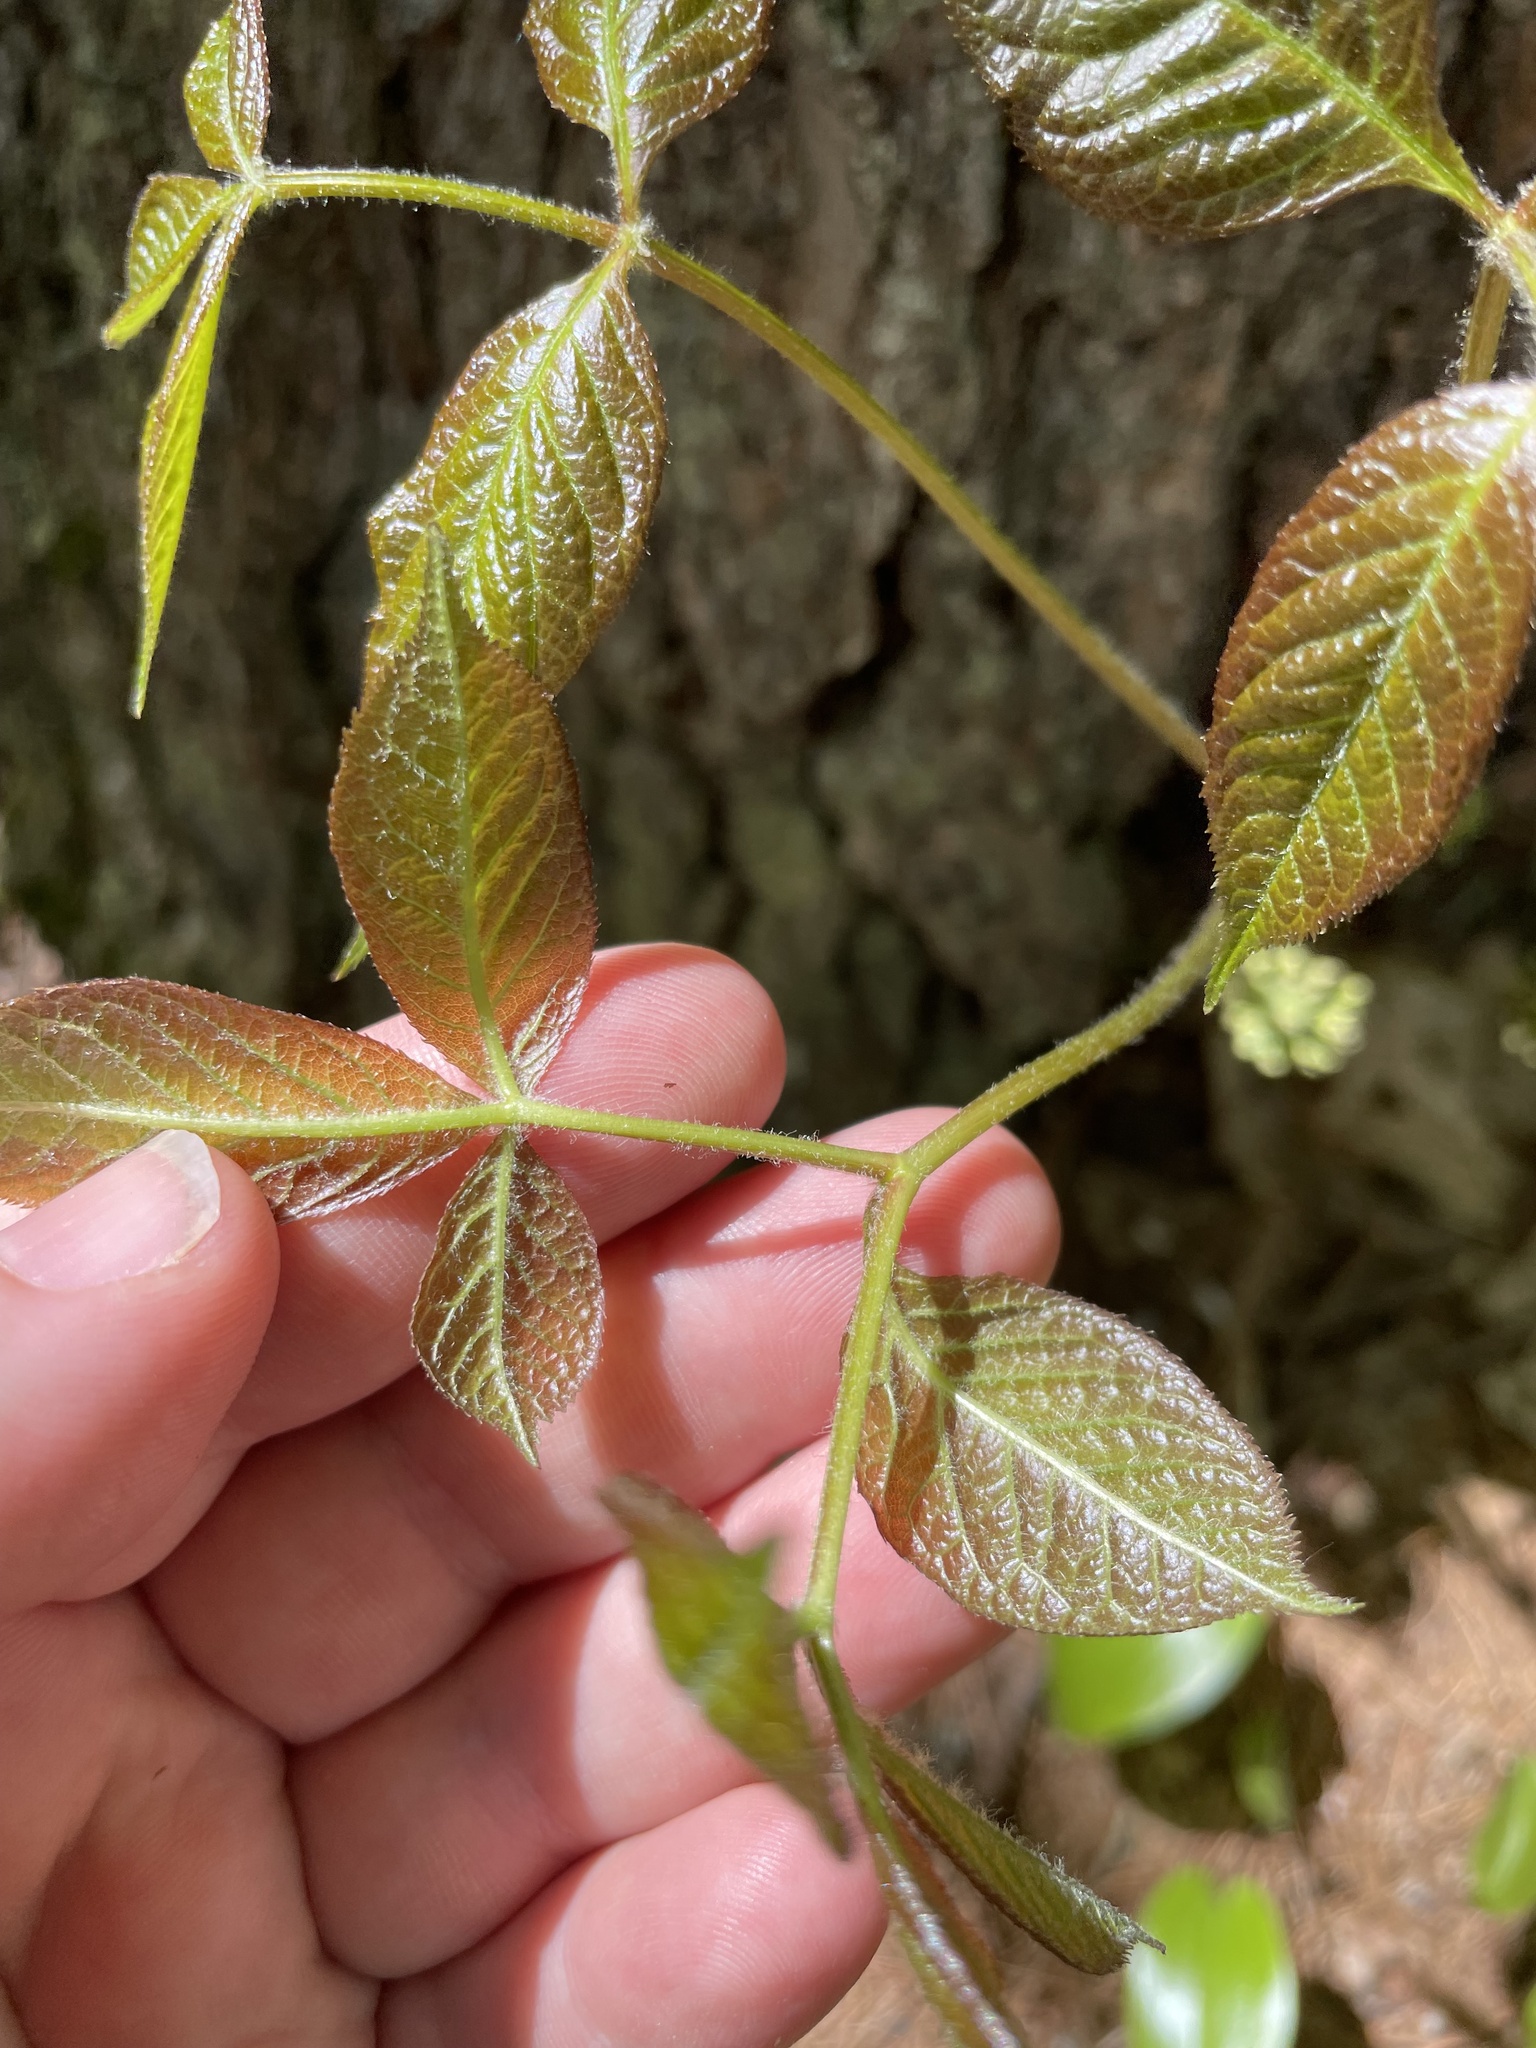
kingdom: Plantae
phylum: Tracheophyta
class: Magnoliopsida
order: Apiales
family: Araliaceae
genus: Aralia
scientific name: Aralia nudicaulis
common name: Wild sarsaparilla
